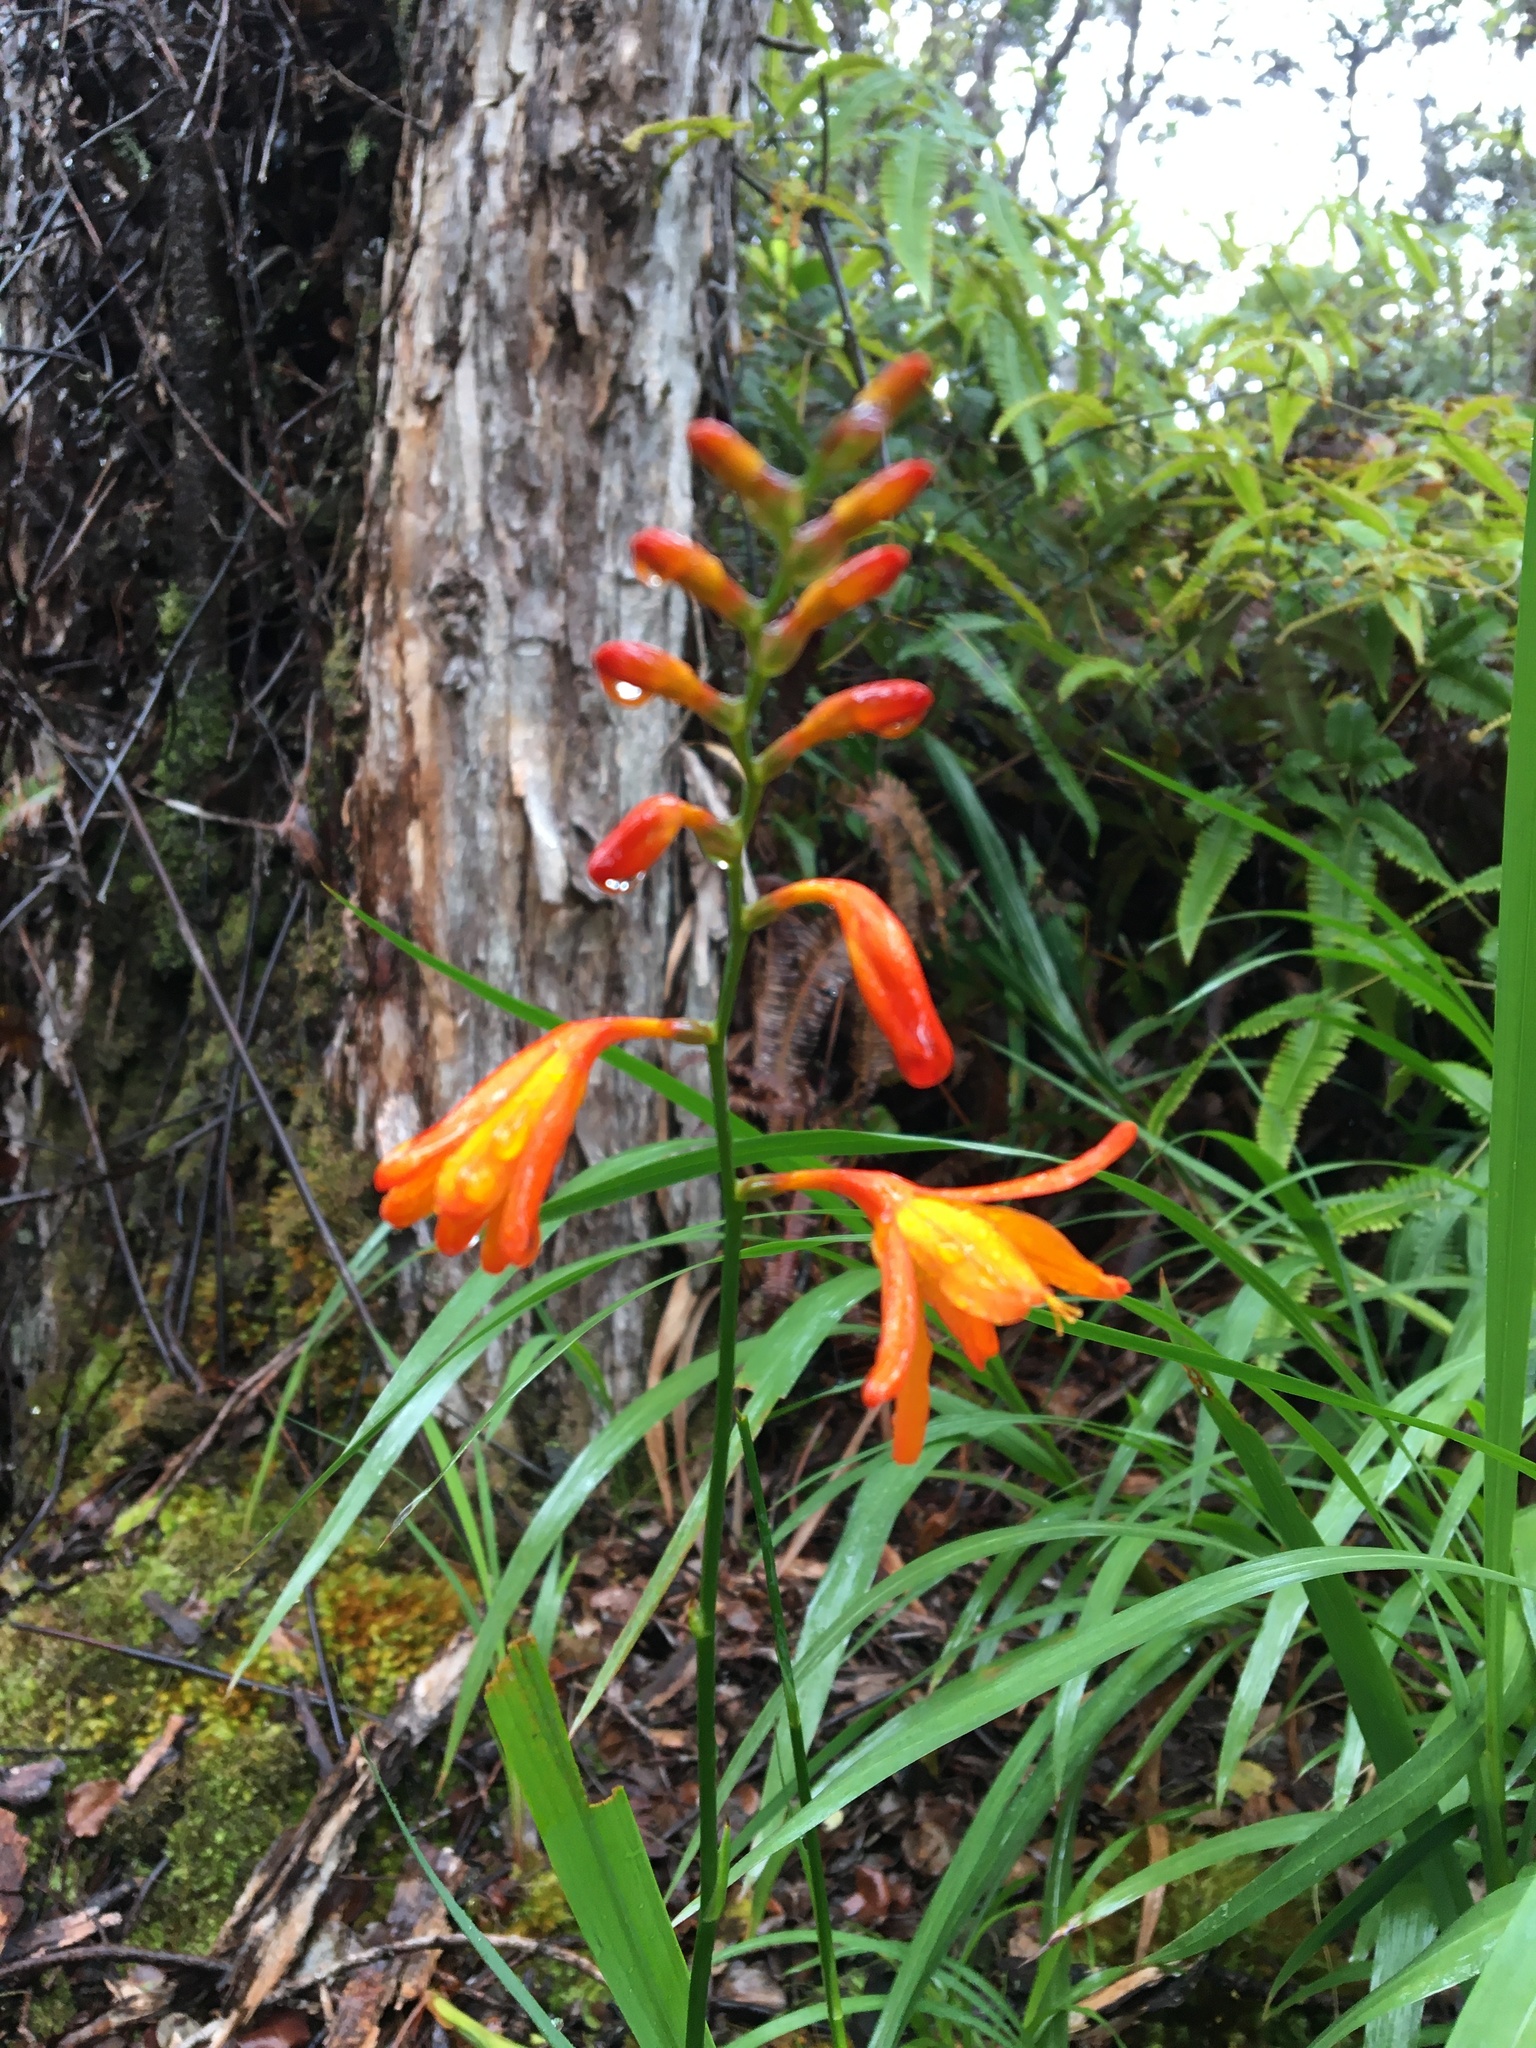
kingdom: Plantae
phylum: Tracheophyta
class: Liliopsida
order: Asparagales
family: Iridaceae
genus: Crocosmia
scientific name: Crocosmia crocosmiiflora
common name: Montbretia
